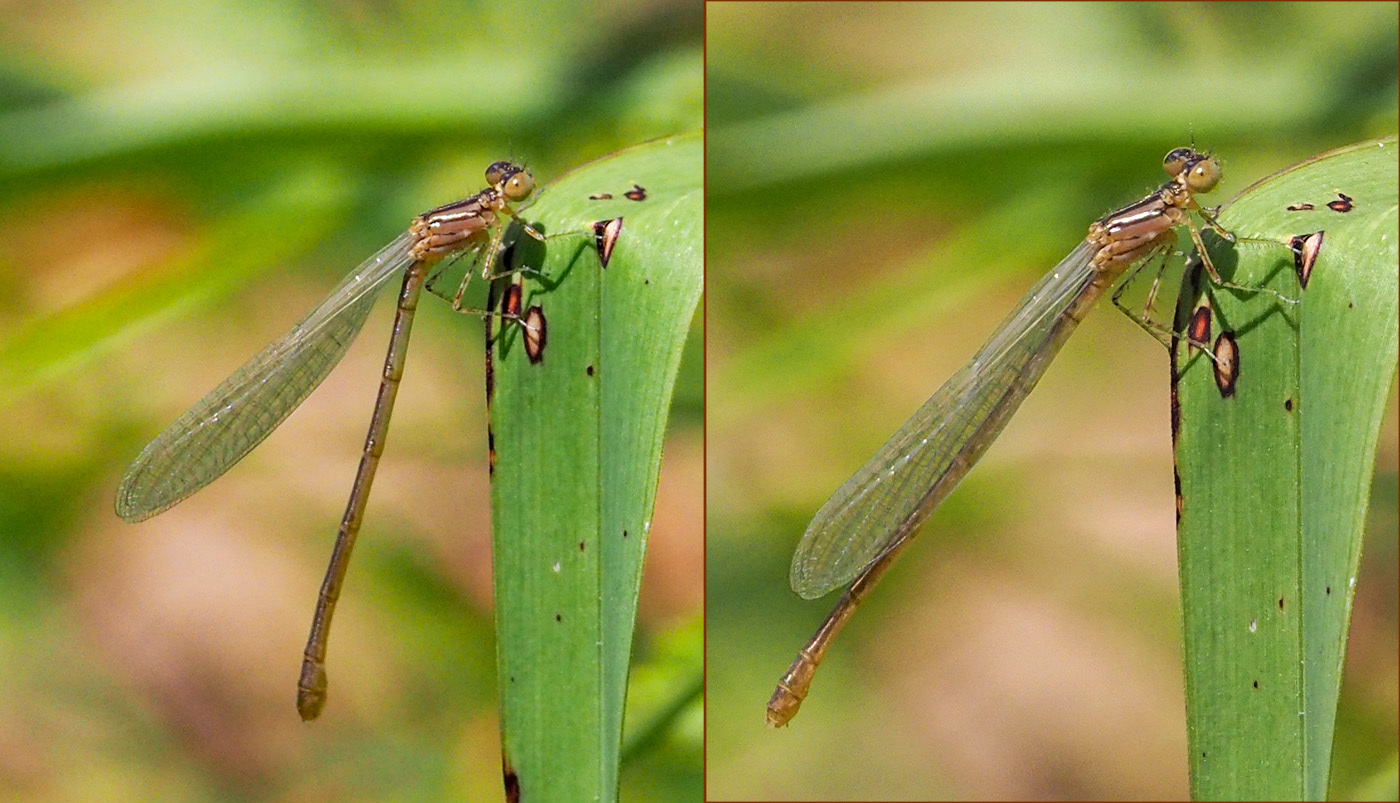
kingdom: Animalia
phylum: Arthropoda
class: Insecta
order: Odonata
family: Coenagrionidae
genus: Erythromma
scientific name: Erythromma lindenii
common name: Blue-eye
